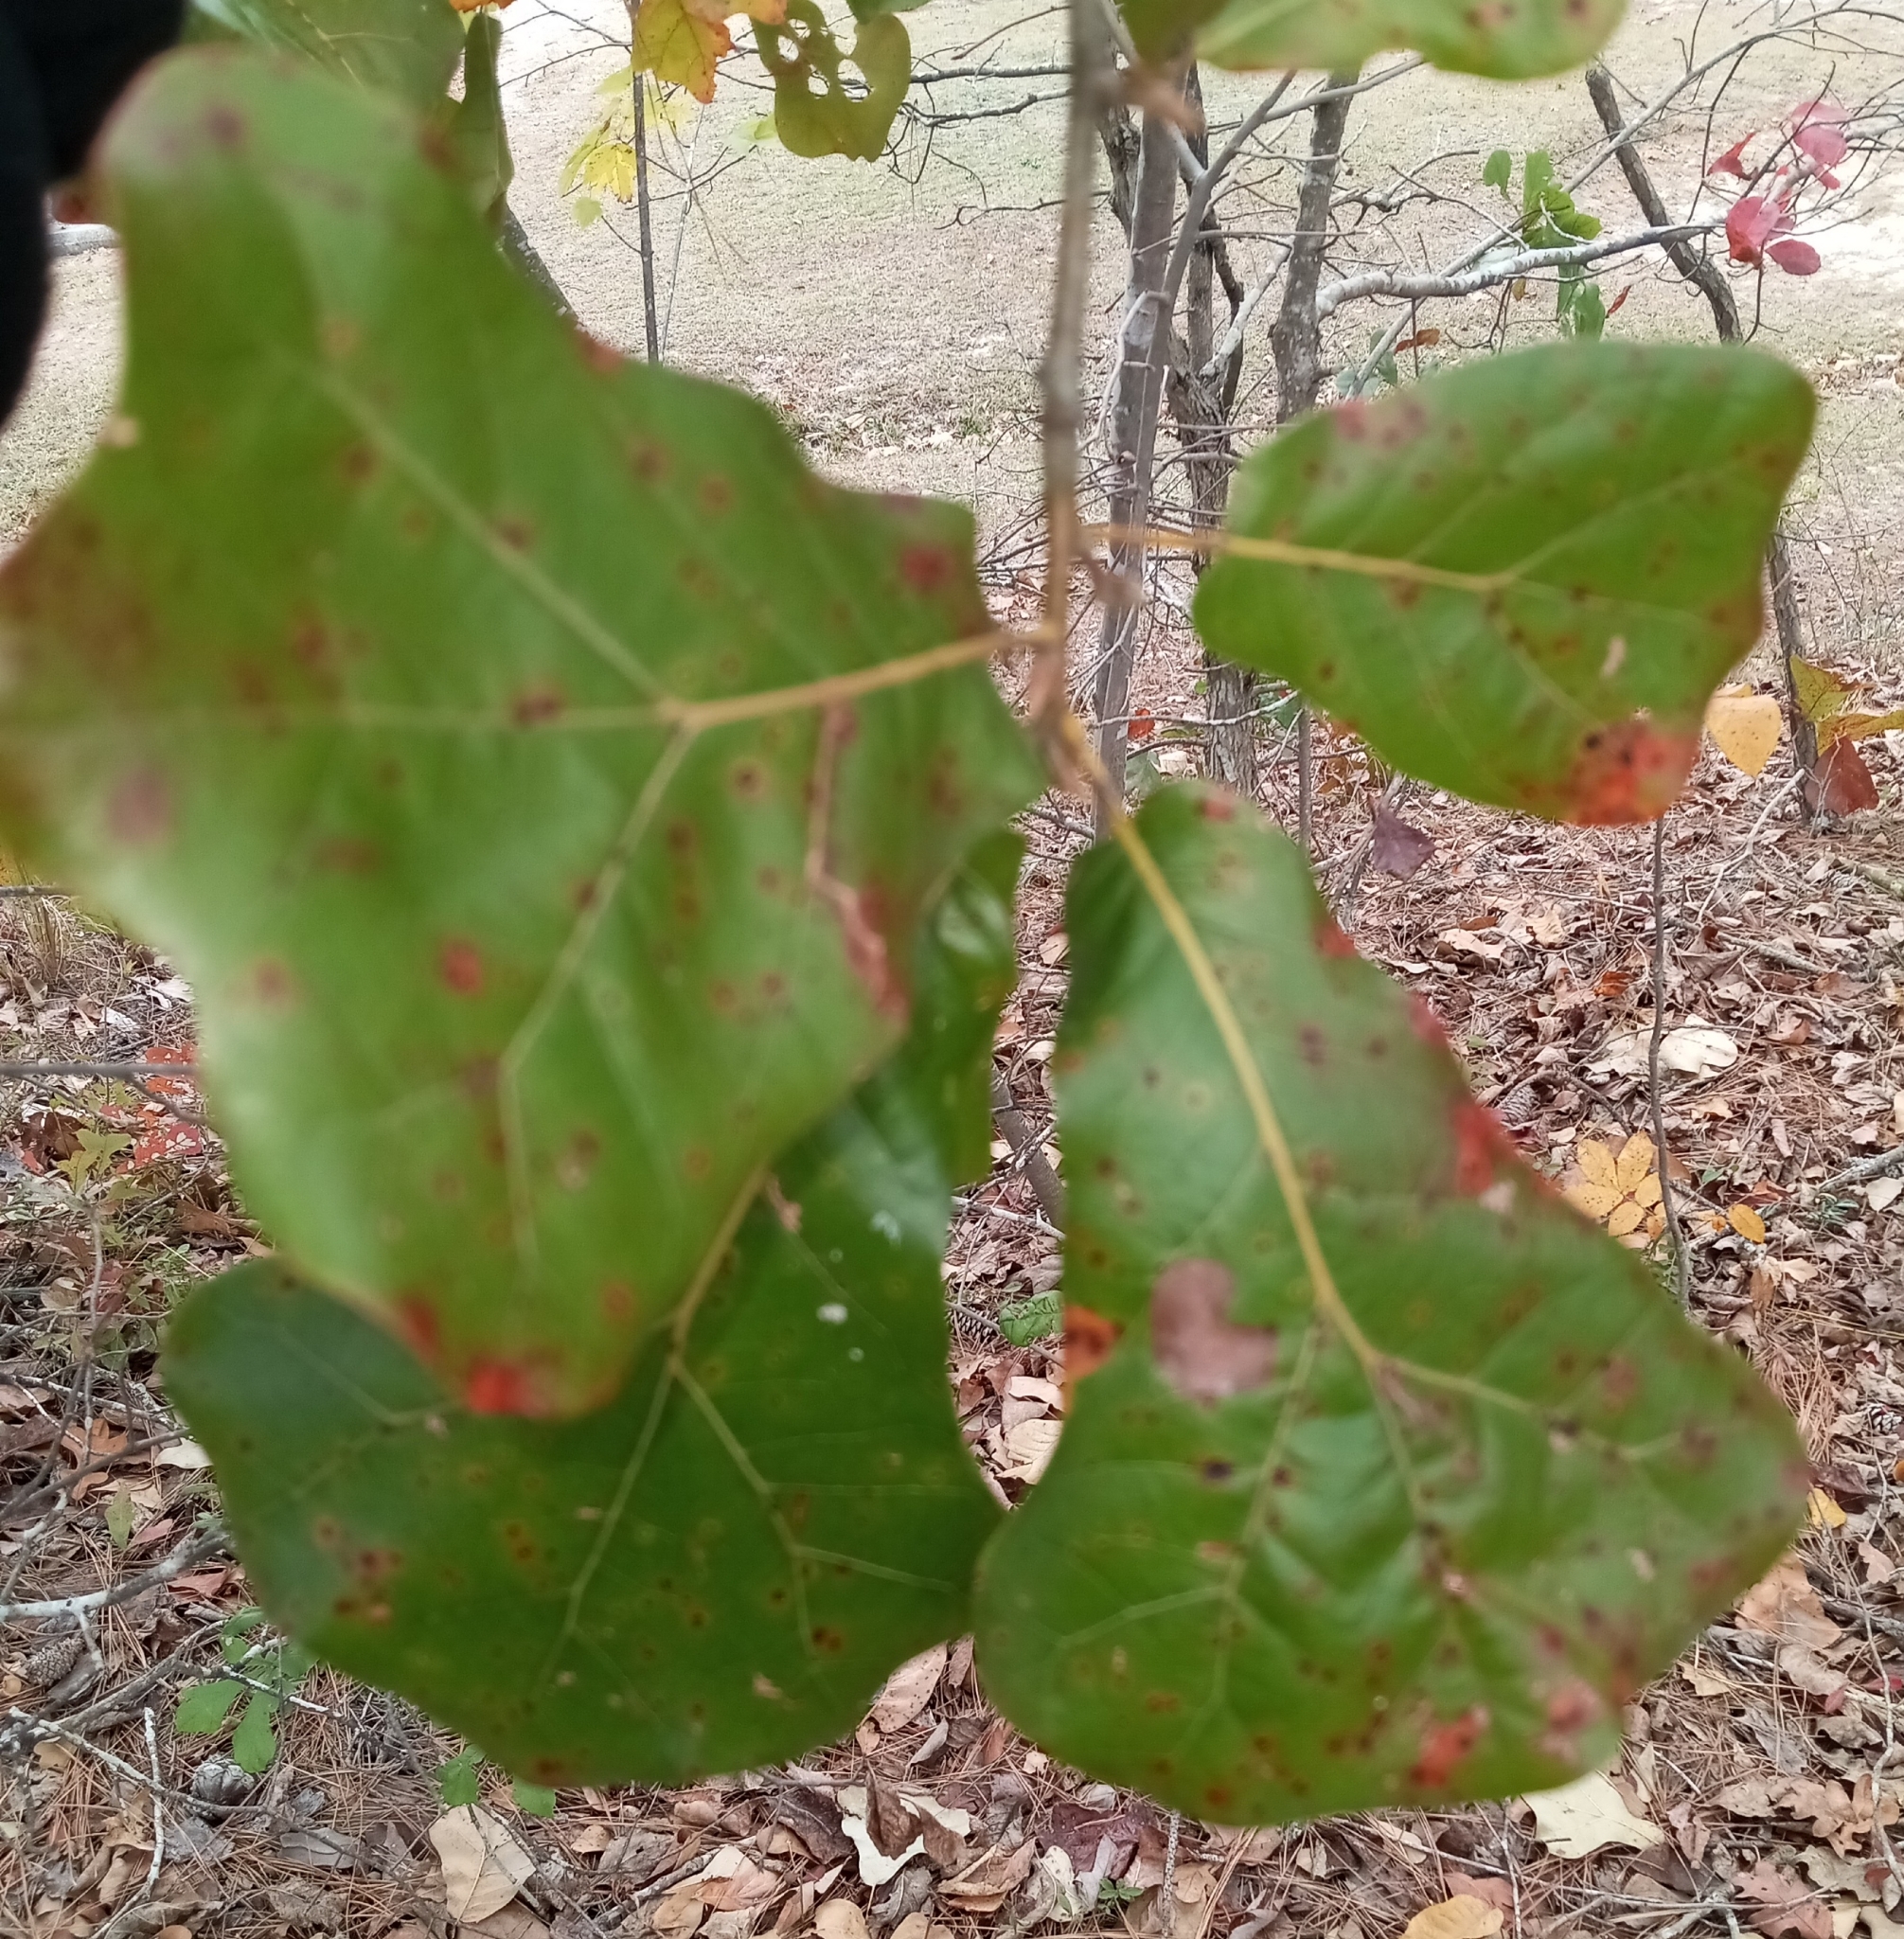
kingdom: Plantae
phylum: Tracheophyta
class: Magnoliopsida
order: Fagales
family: Fagaceae
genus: Quercus
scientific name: Quercus marilandica
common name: Blackjack oak
